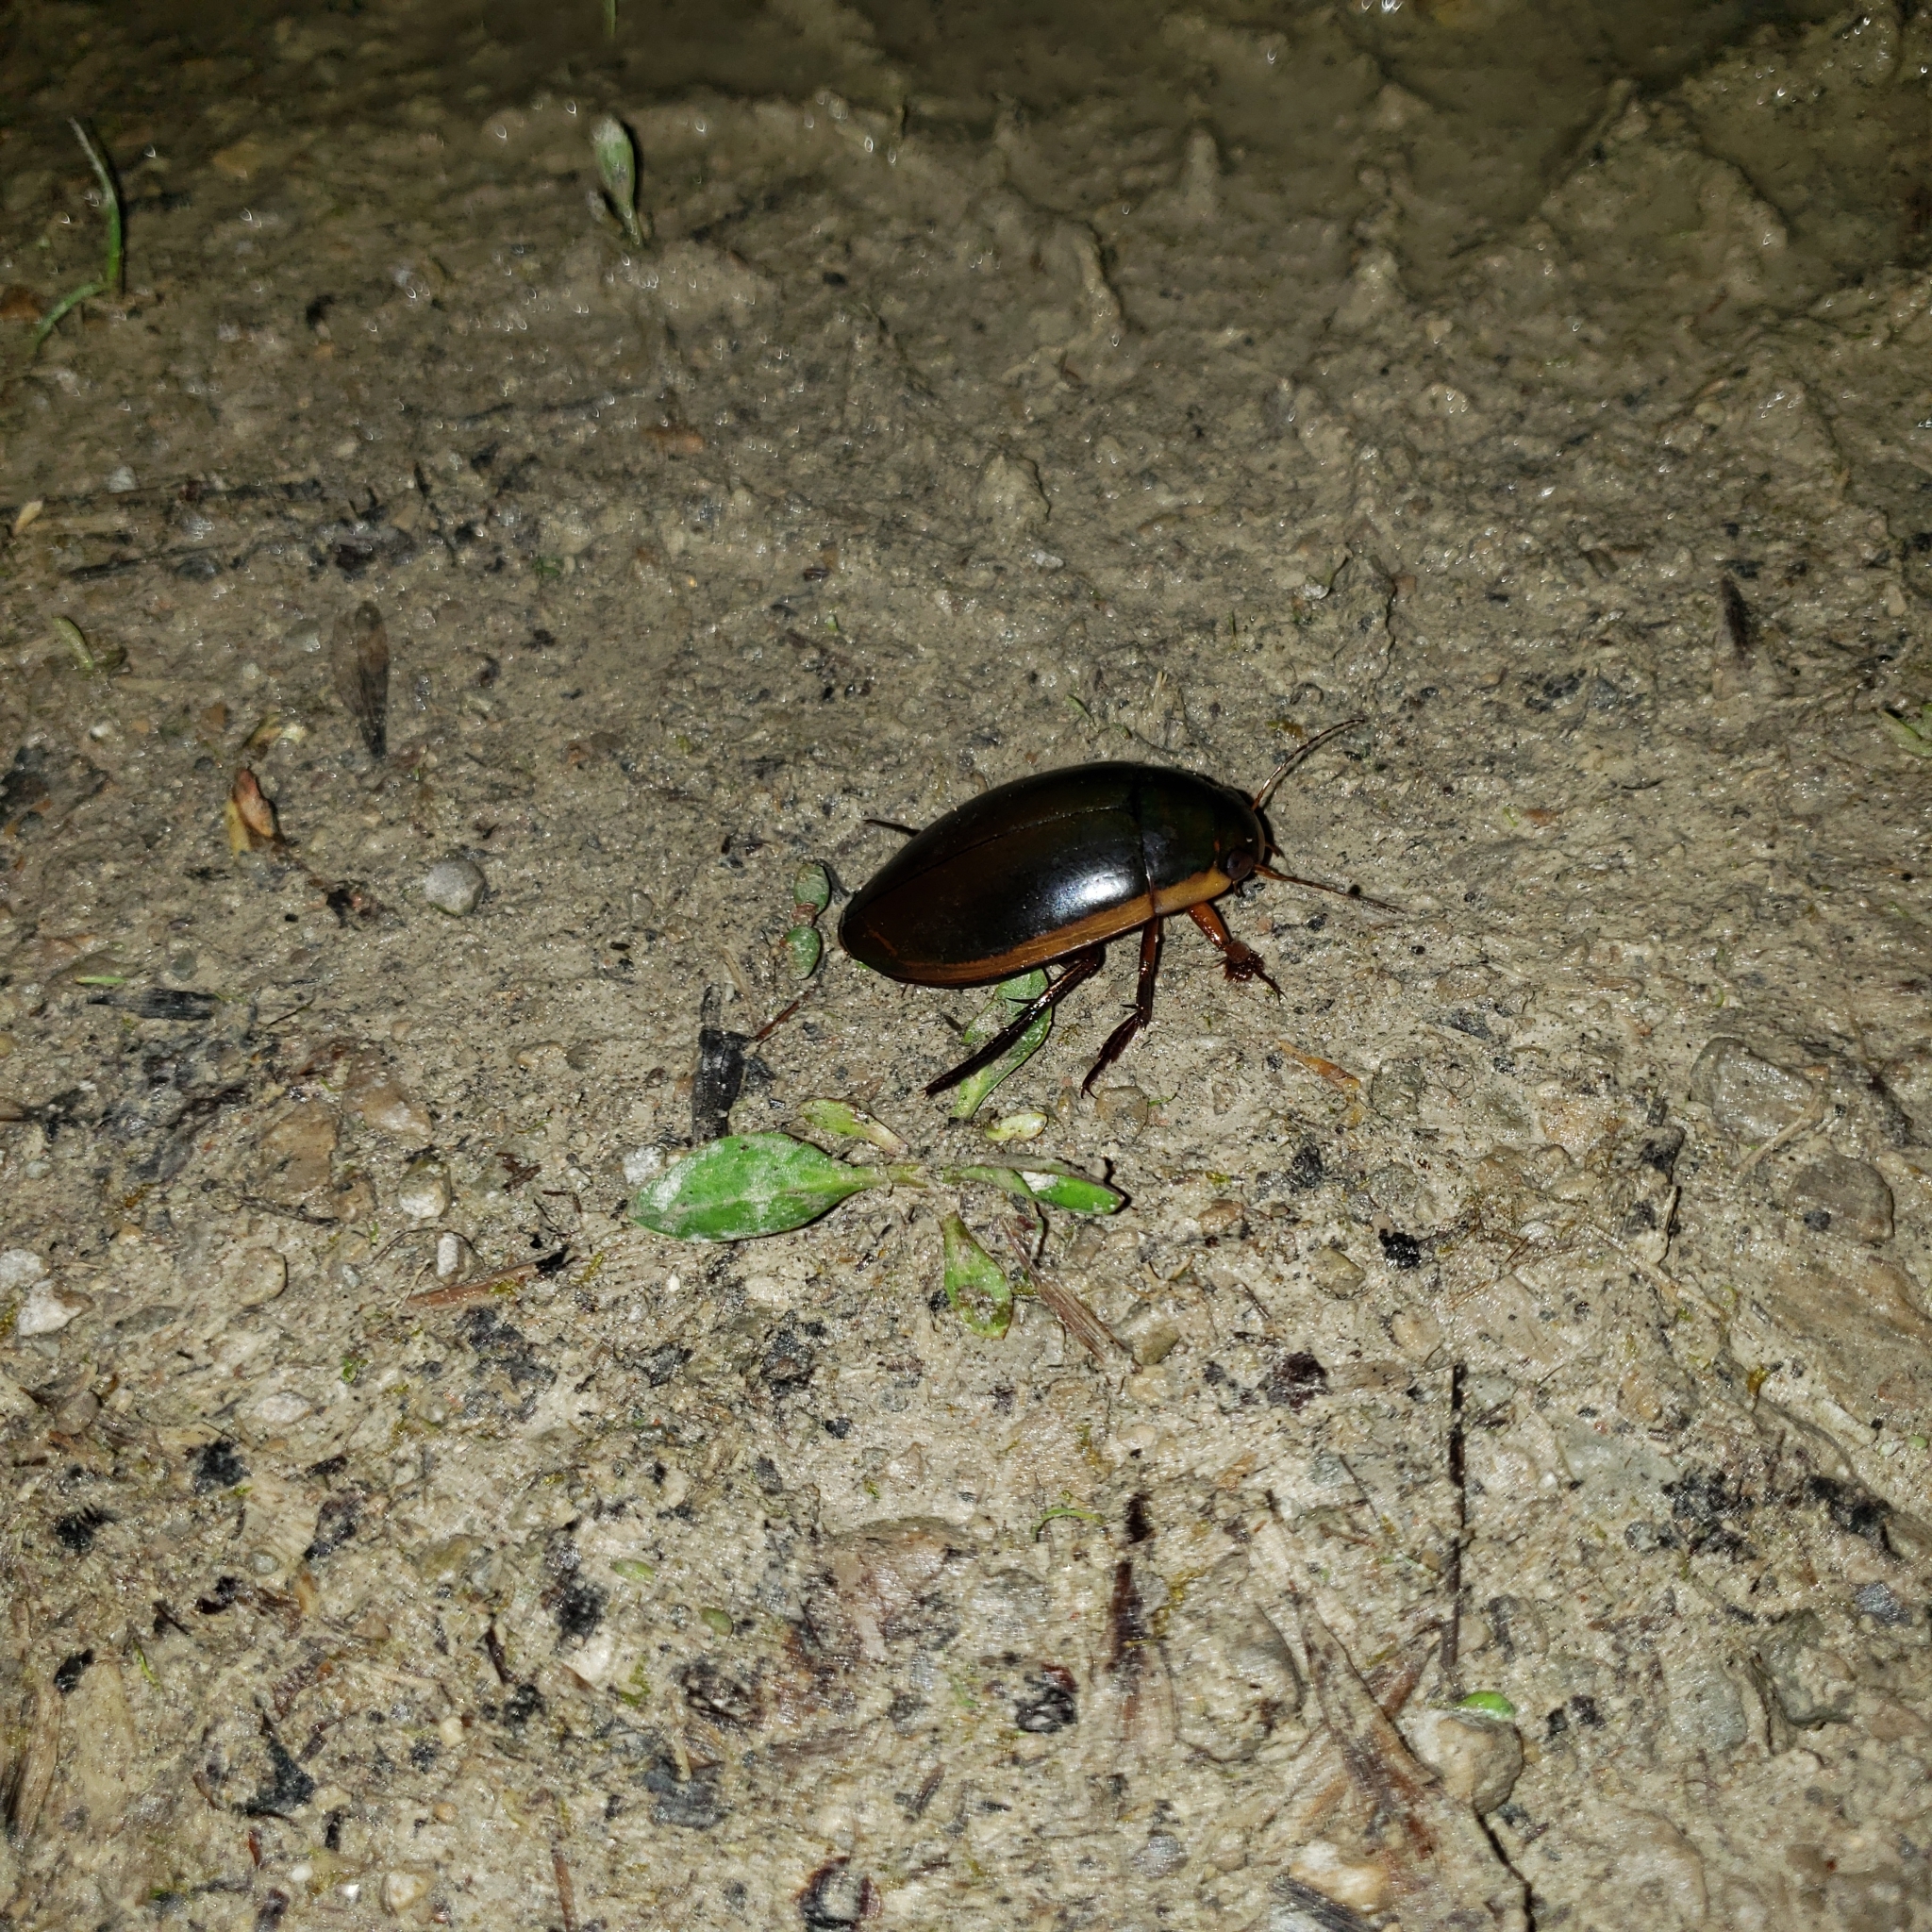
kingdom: Animalia
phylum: Arthropoda
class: Insecta
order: Coleoptera
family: Dytiscidae
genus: Dytiscus
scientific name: Dytiscus
